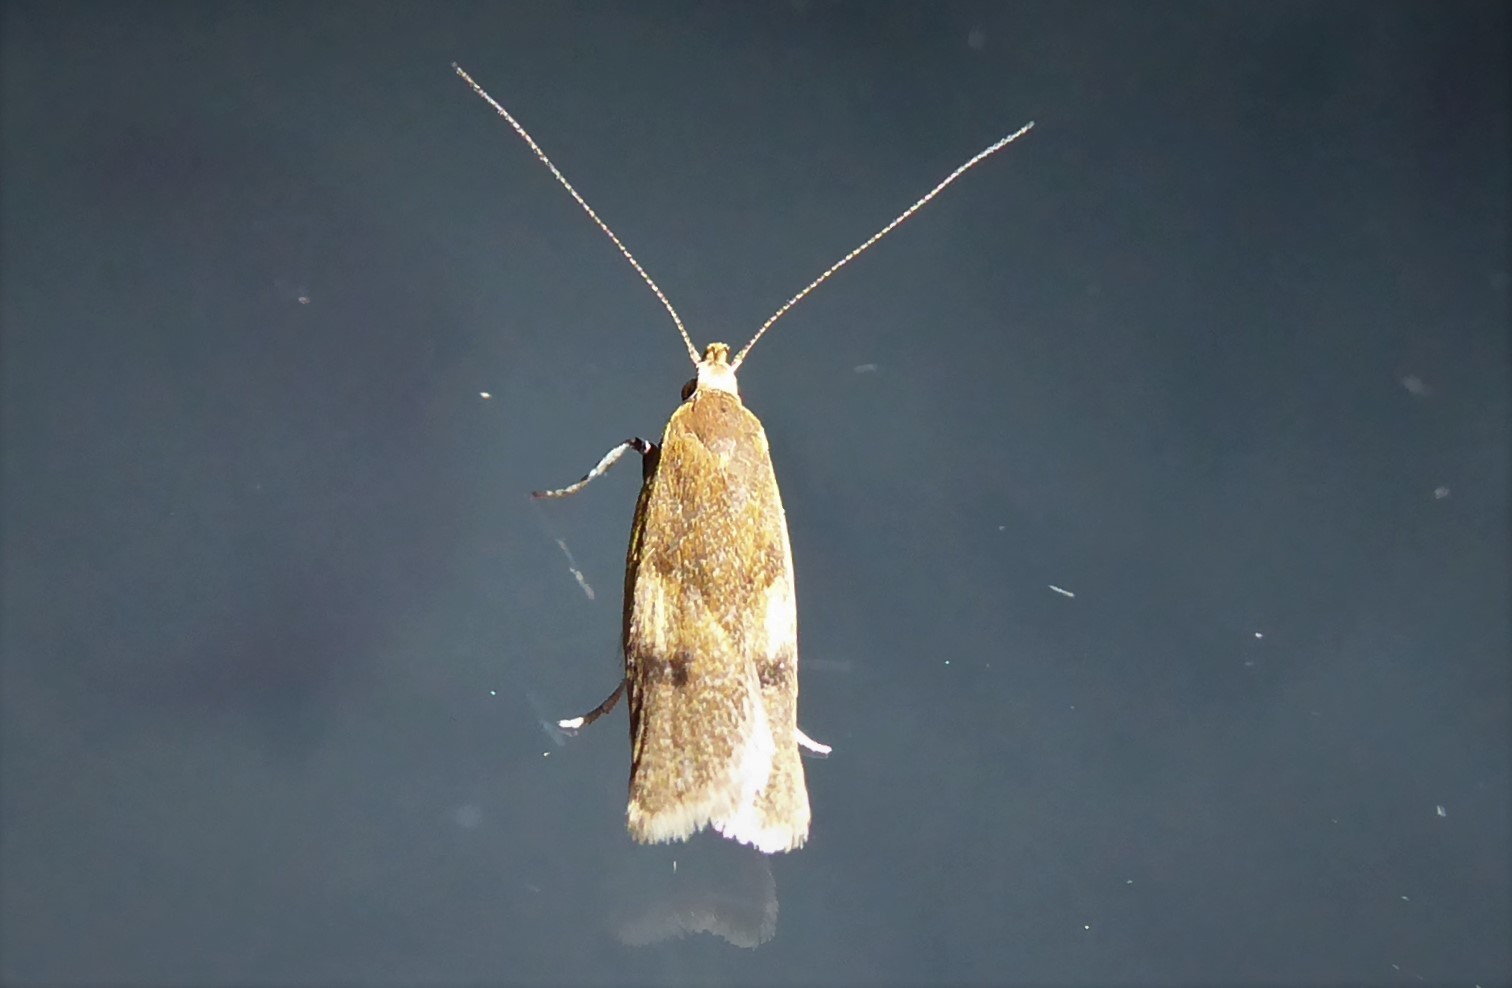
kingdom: Animalia
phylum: Arthropoda
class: Insecta
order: Lepidoptera
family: Oecophoridae
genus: Gymnobathra
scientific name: Gymnobathra parca
